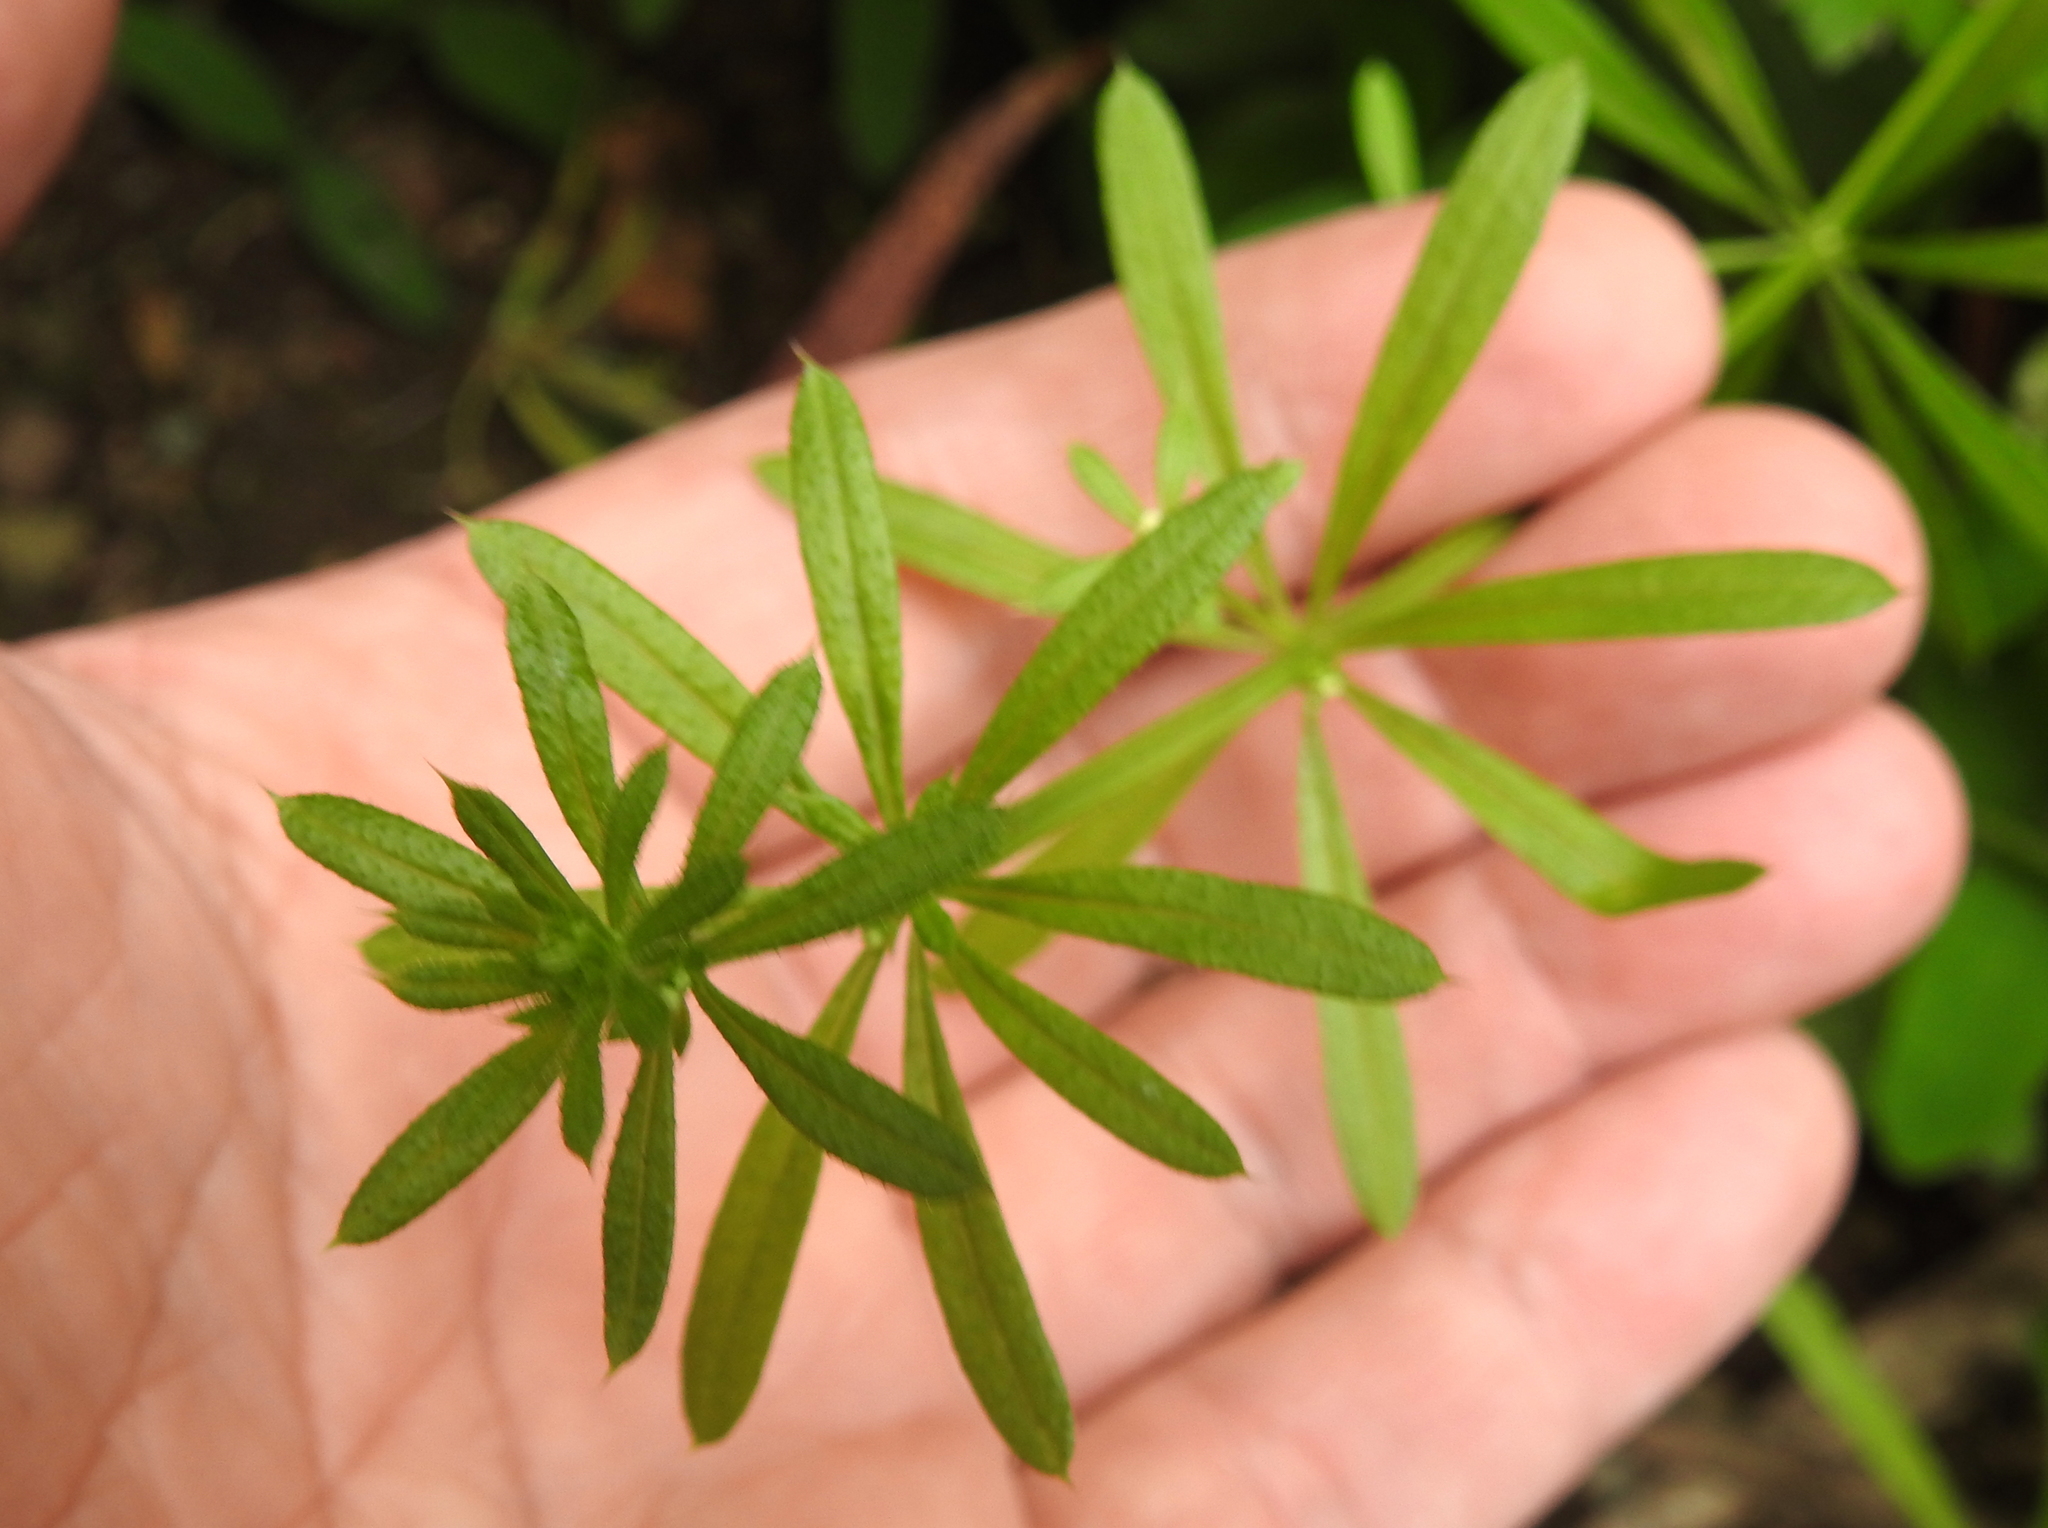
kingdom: Plantae
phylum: Tracheophyta
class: Magnoliopsida
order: Gentianales
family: Rubiaceae
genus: Galium
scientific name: Galium aparine
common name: Cleavers
